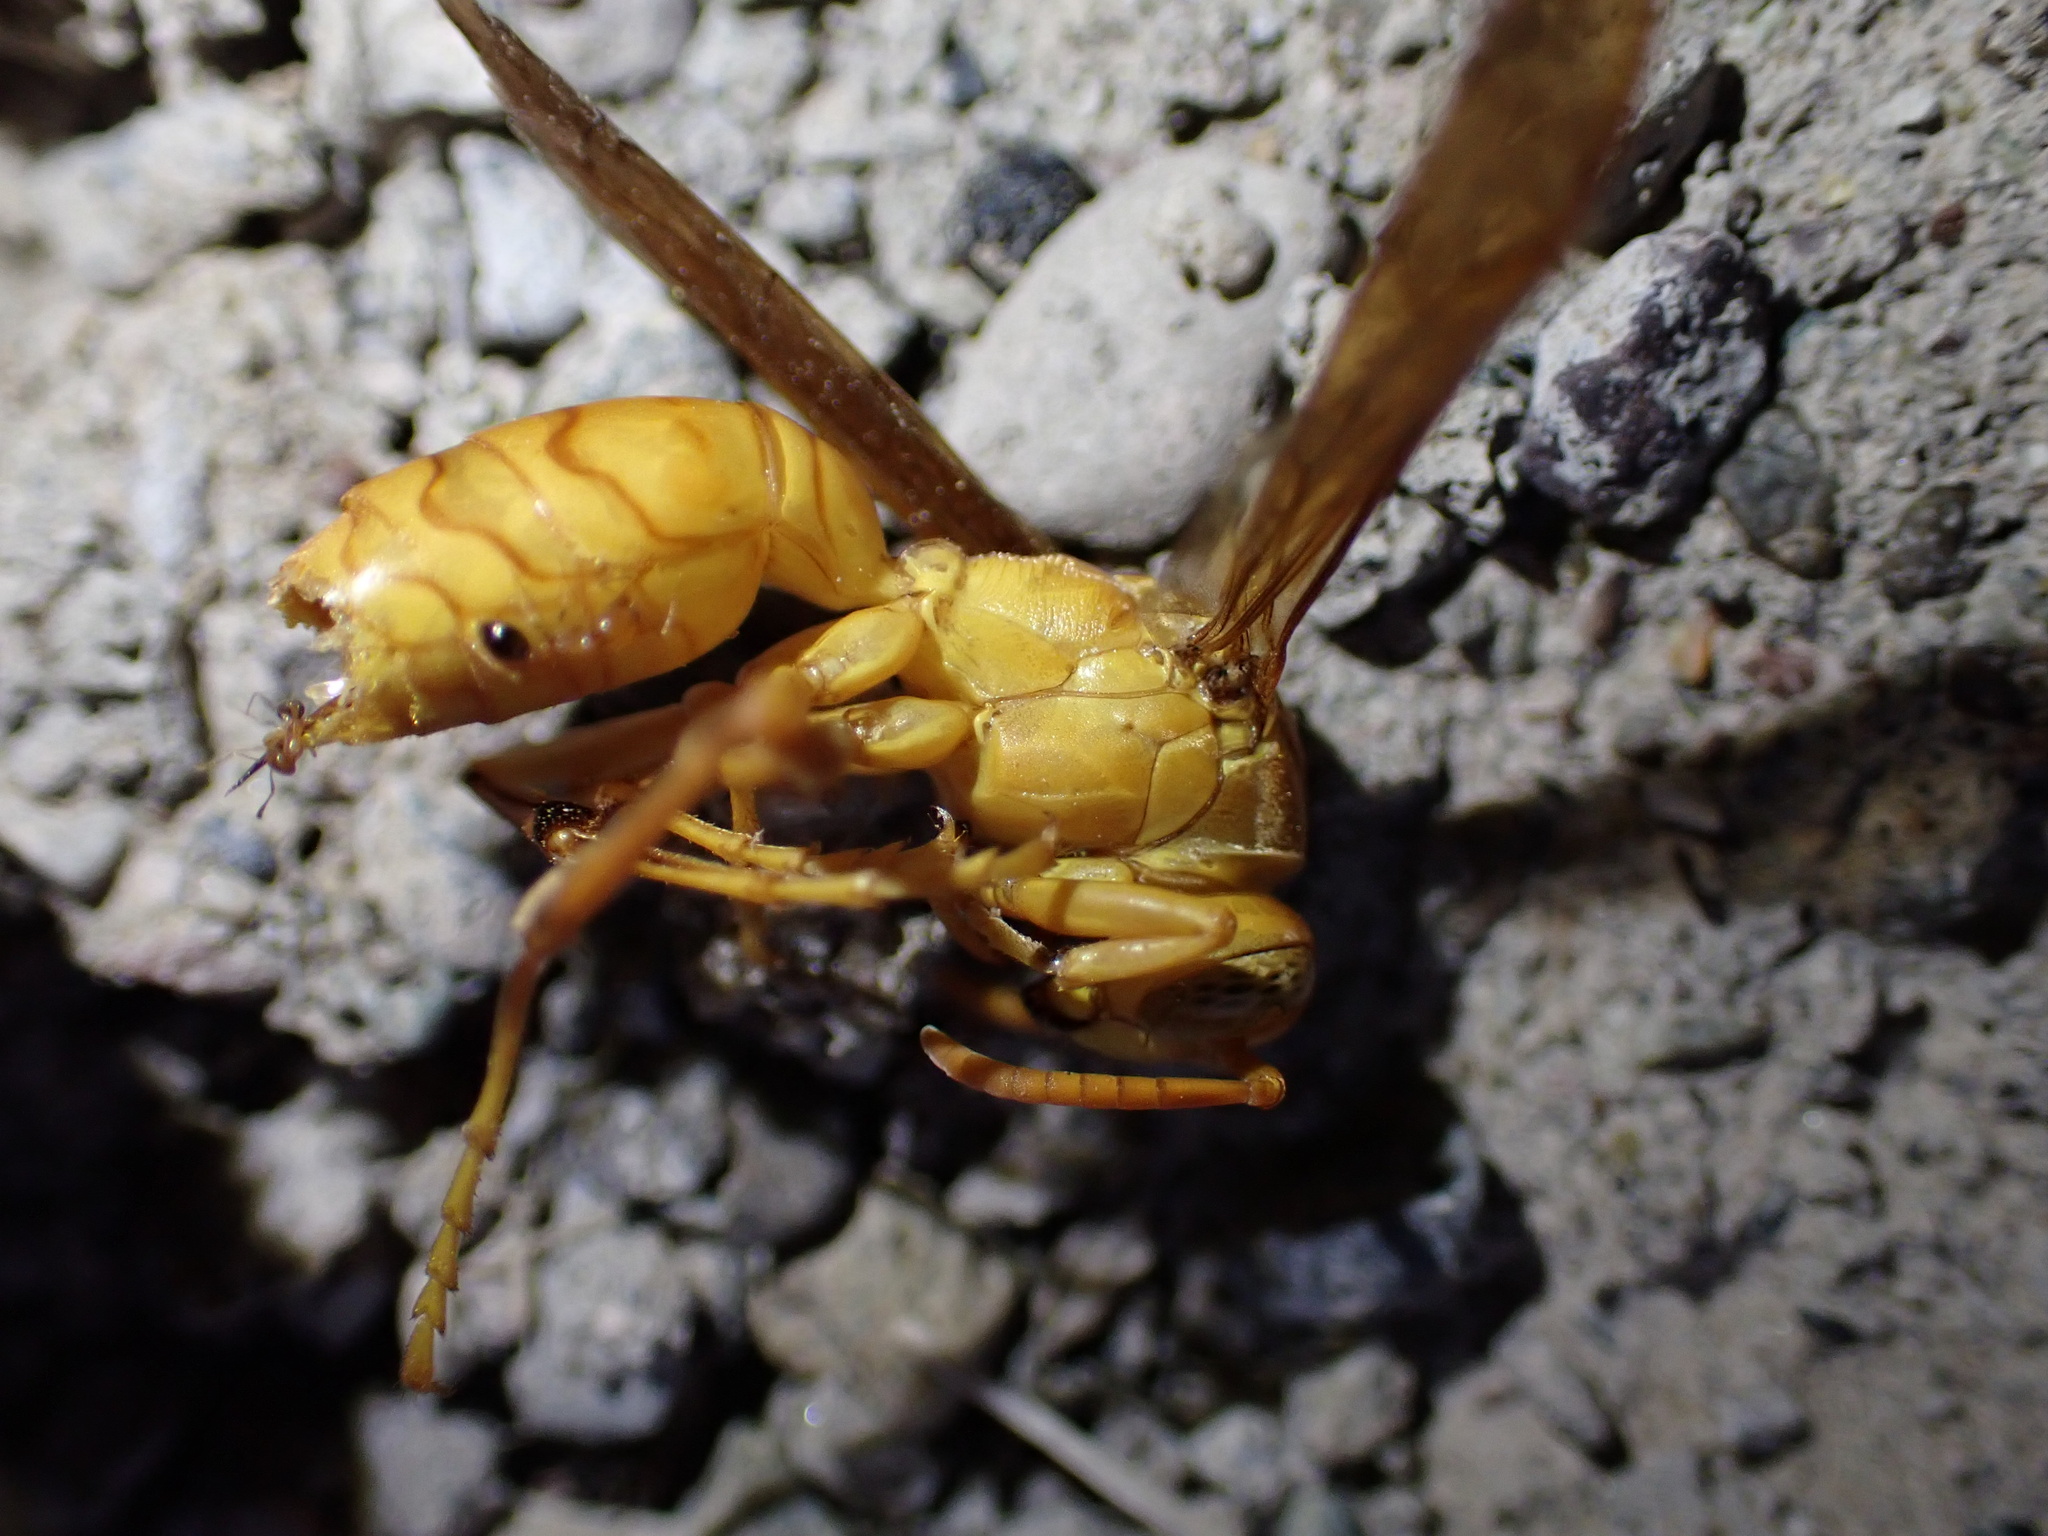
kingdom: Animalia
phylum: Arthropoda
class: Insecta
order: Hymenoptera
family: Eumenidae
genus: Polistes
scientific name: Polistes wattii
